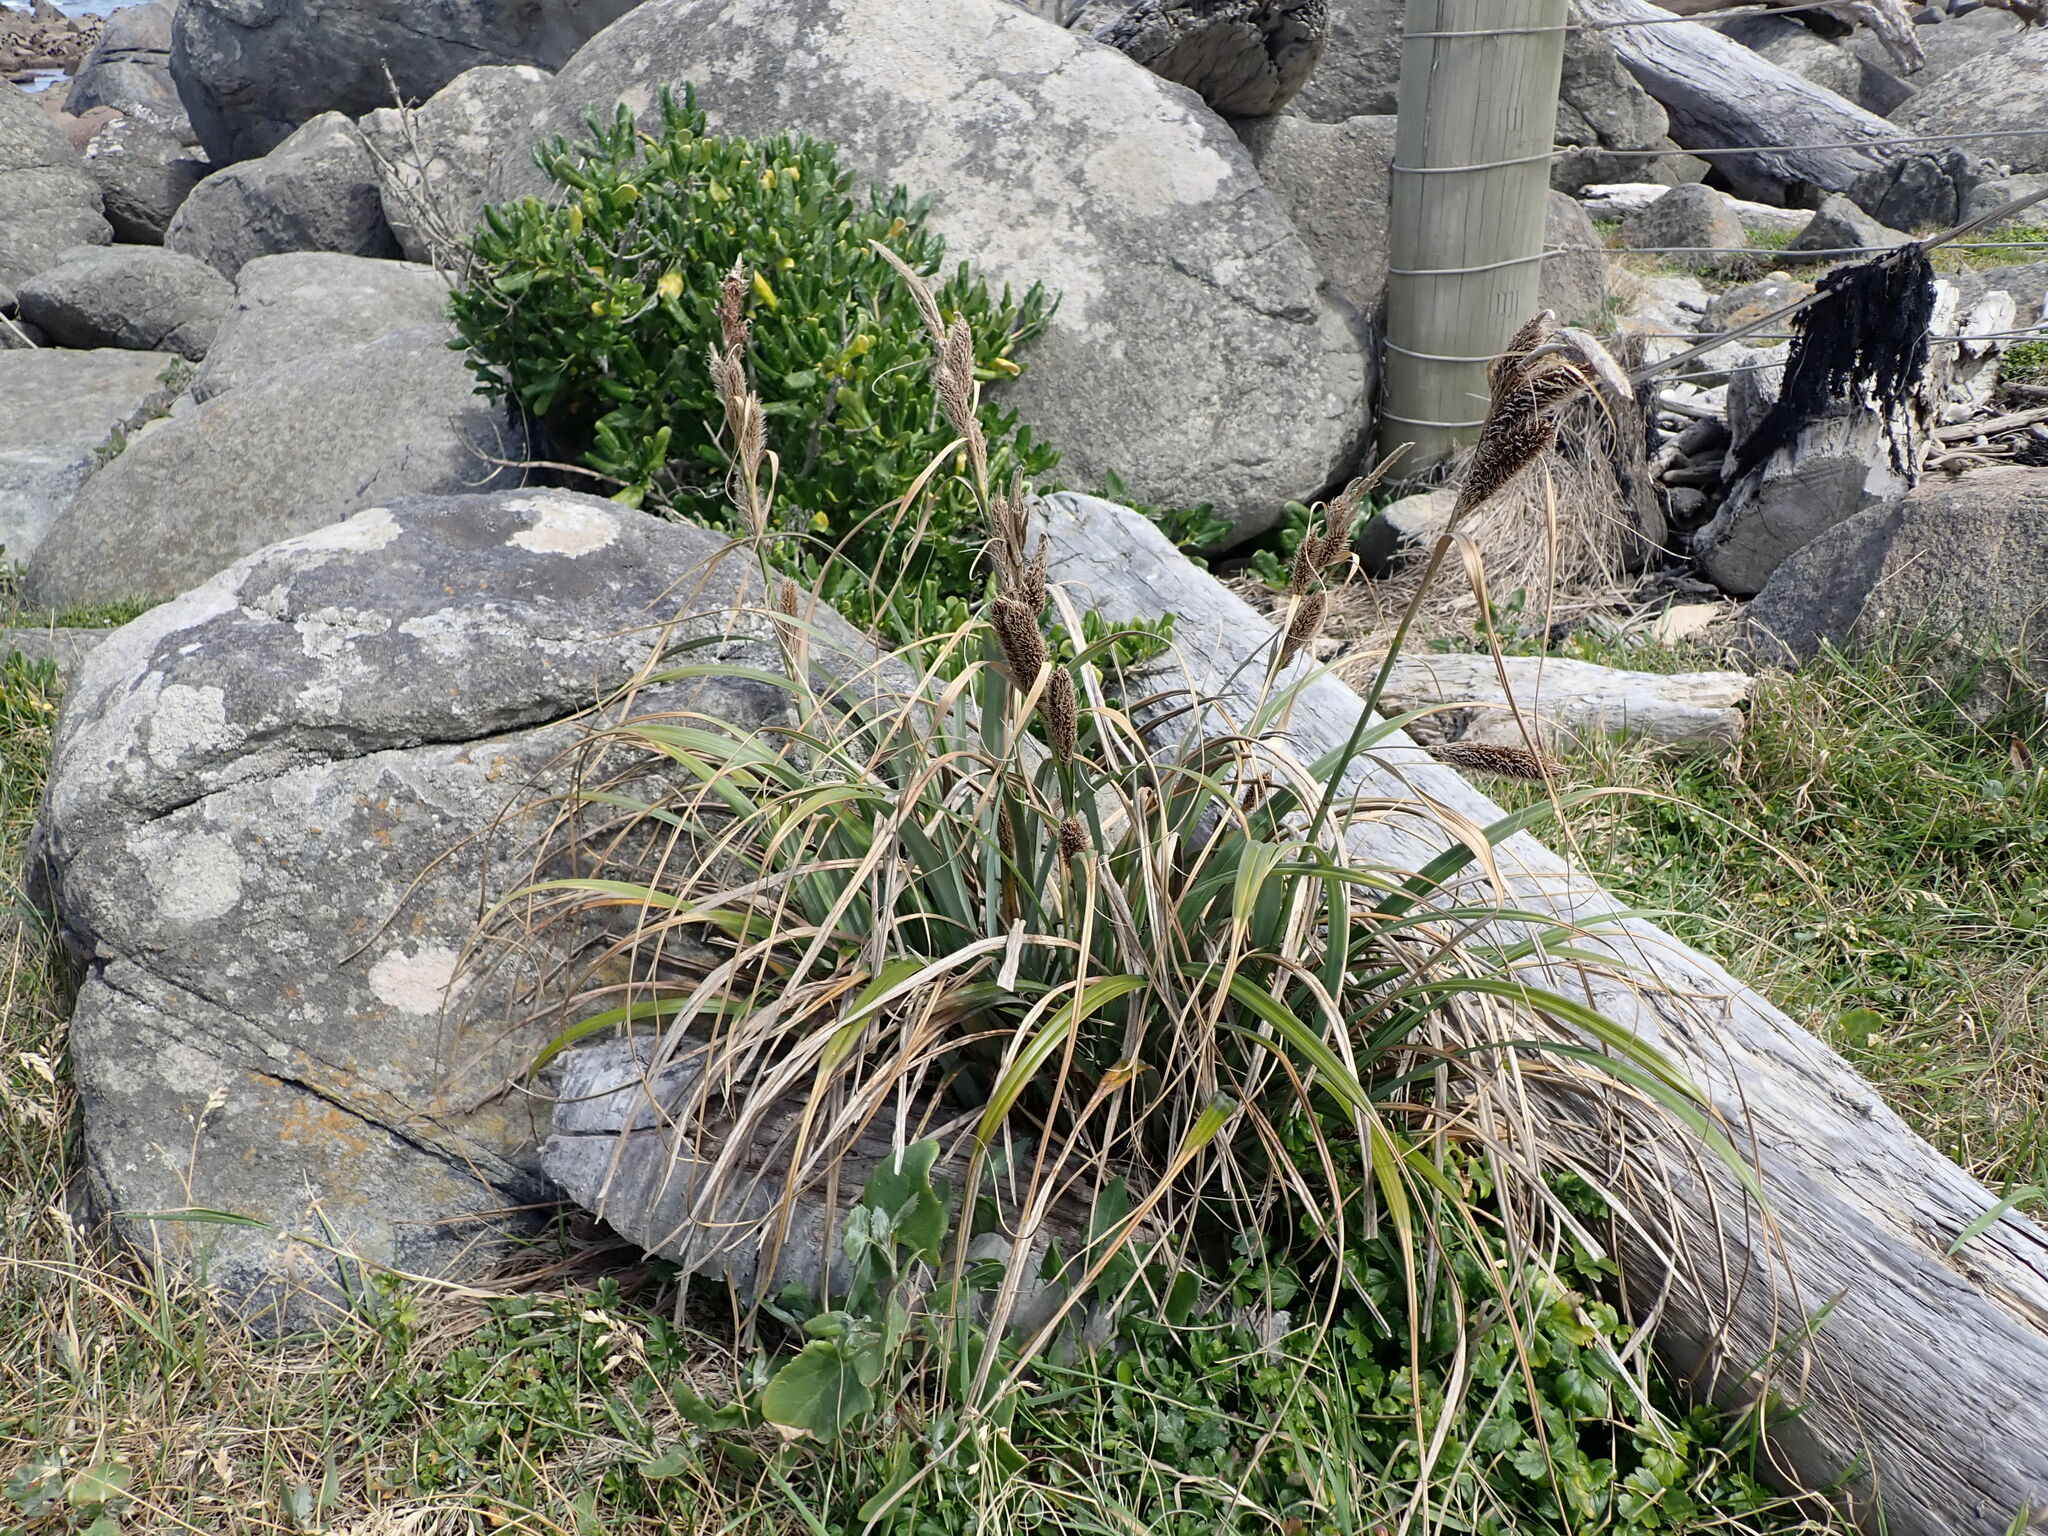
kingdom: Plantae
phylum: Tracheophyta
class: Liliopsida
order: Poales
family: Cyperaceae
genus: Carex
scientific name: Carex trifida
